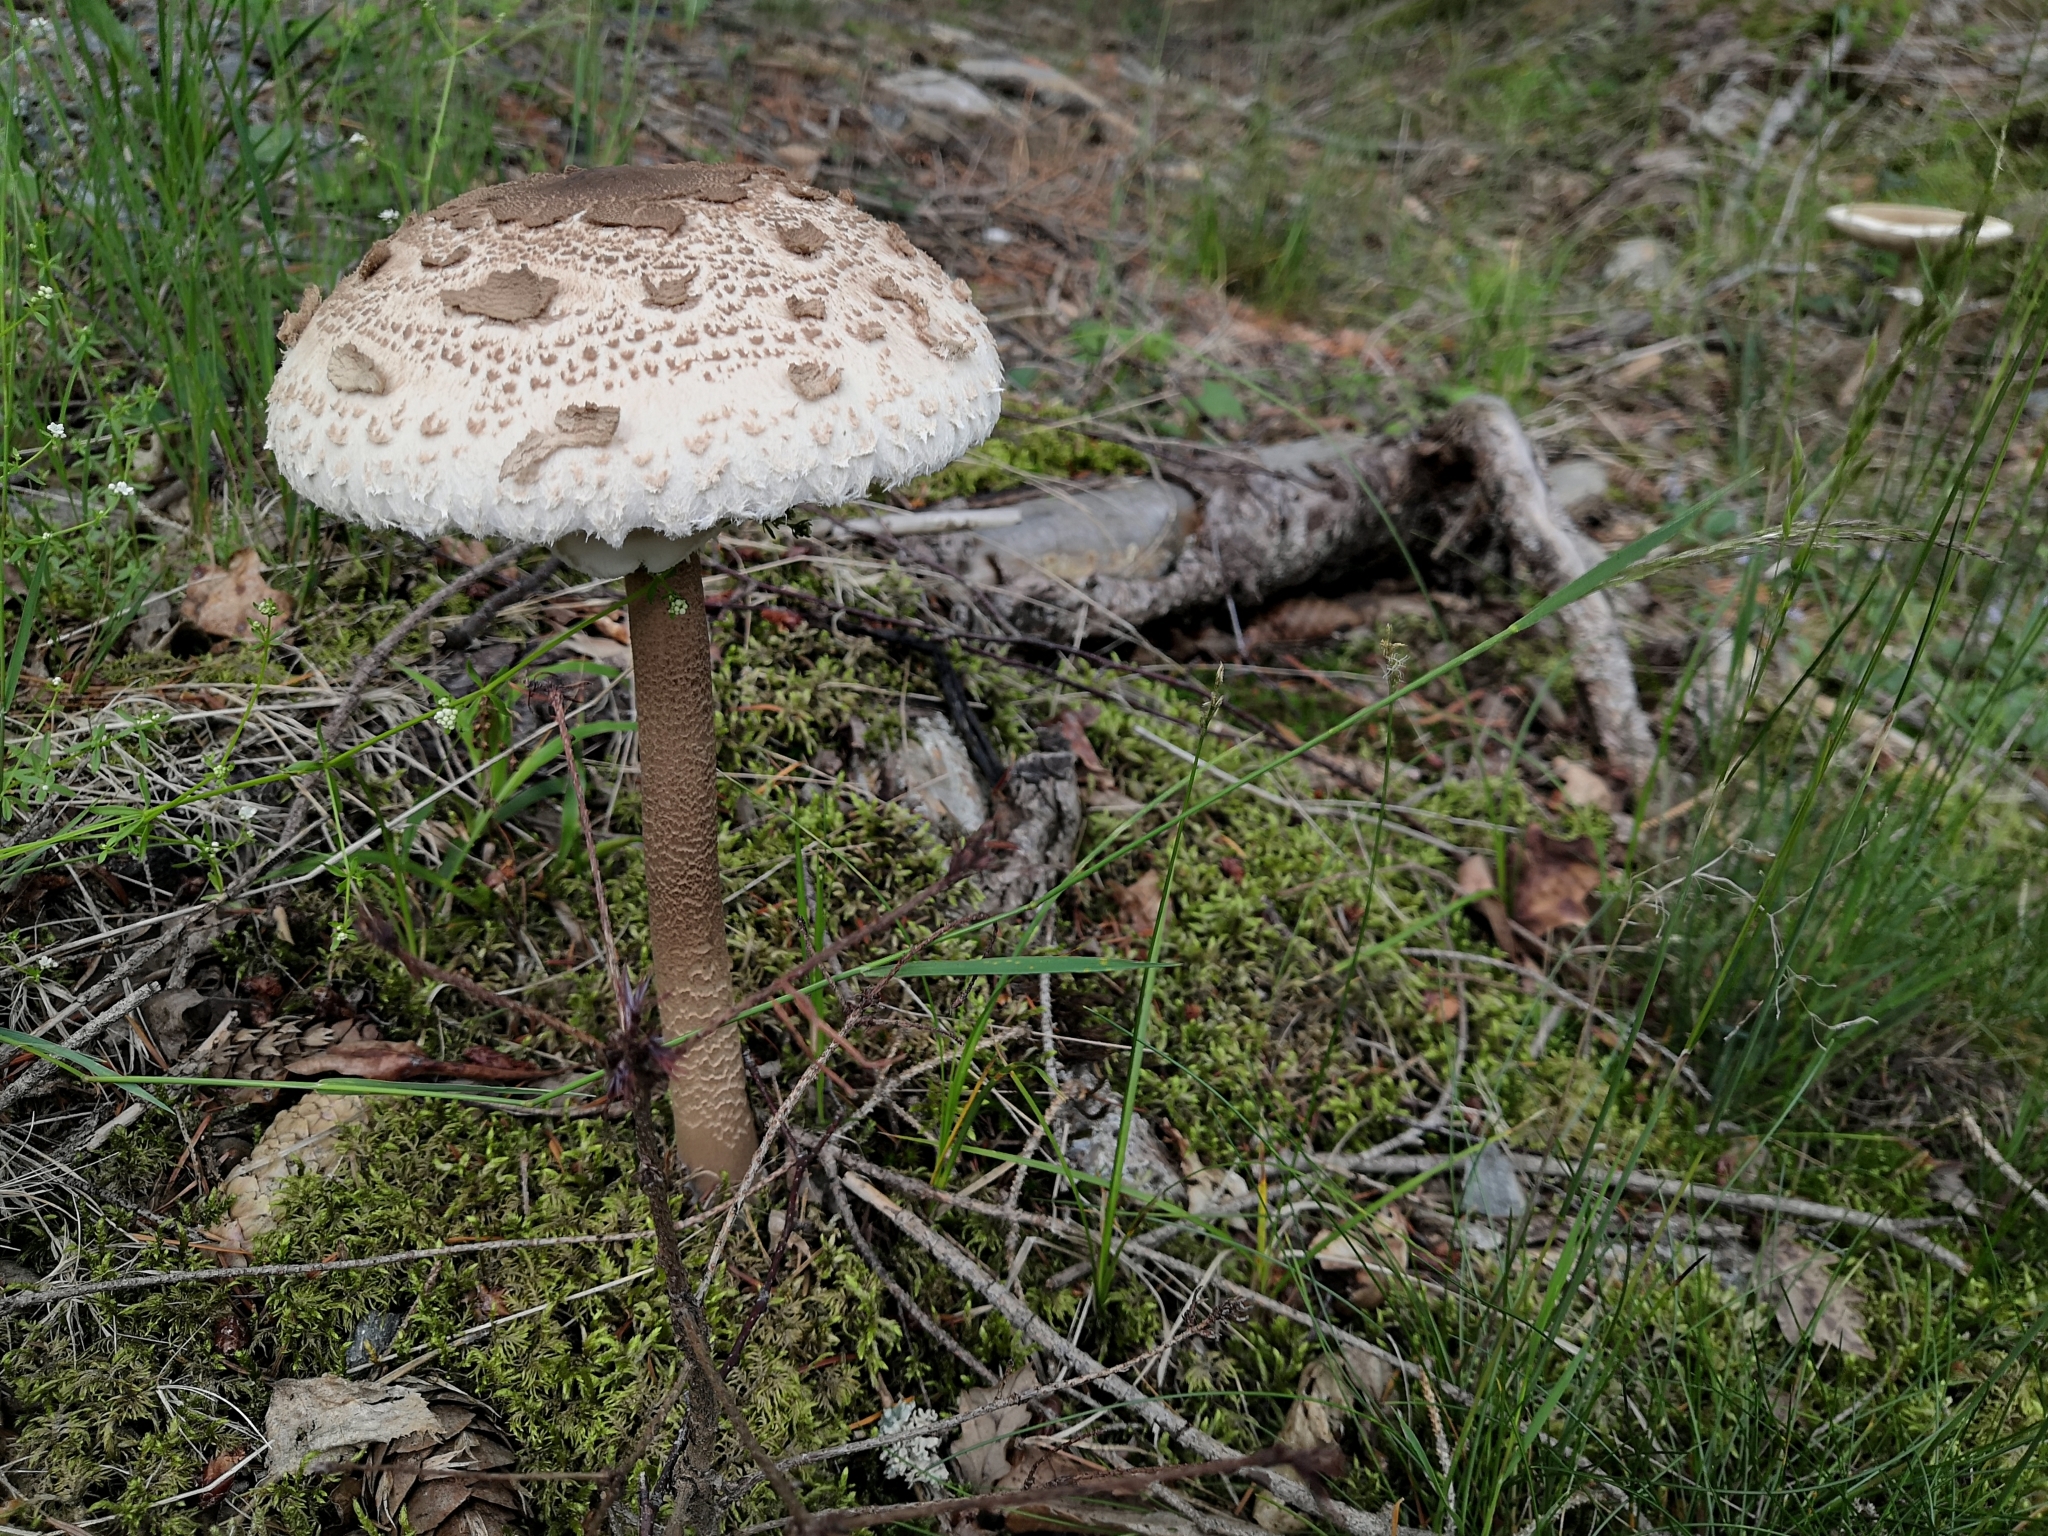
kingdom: Fungi
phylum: Basidiomycota
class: Agaricomycetes
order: Agaricales
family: Agaricaceae
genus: Macrolepiota
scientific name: Macrolepiota procera
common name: Parasol
